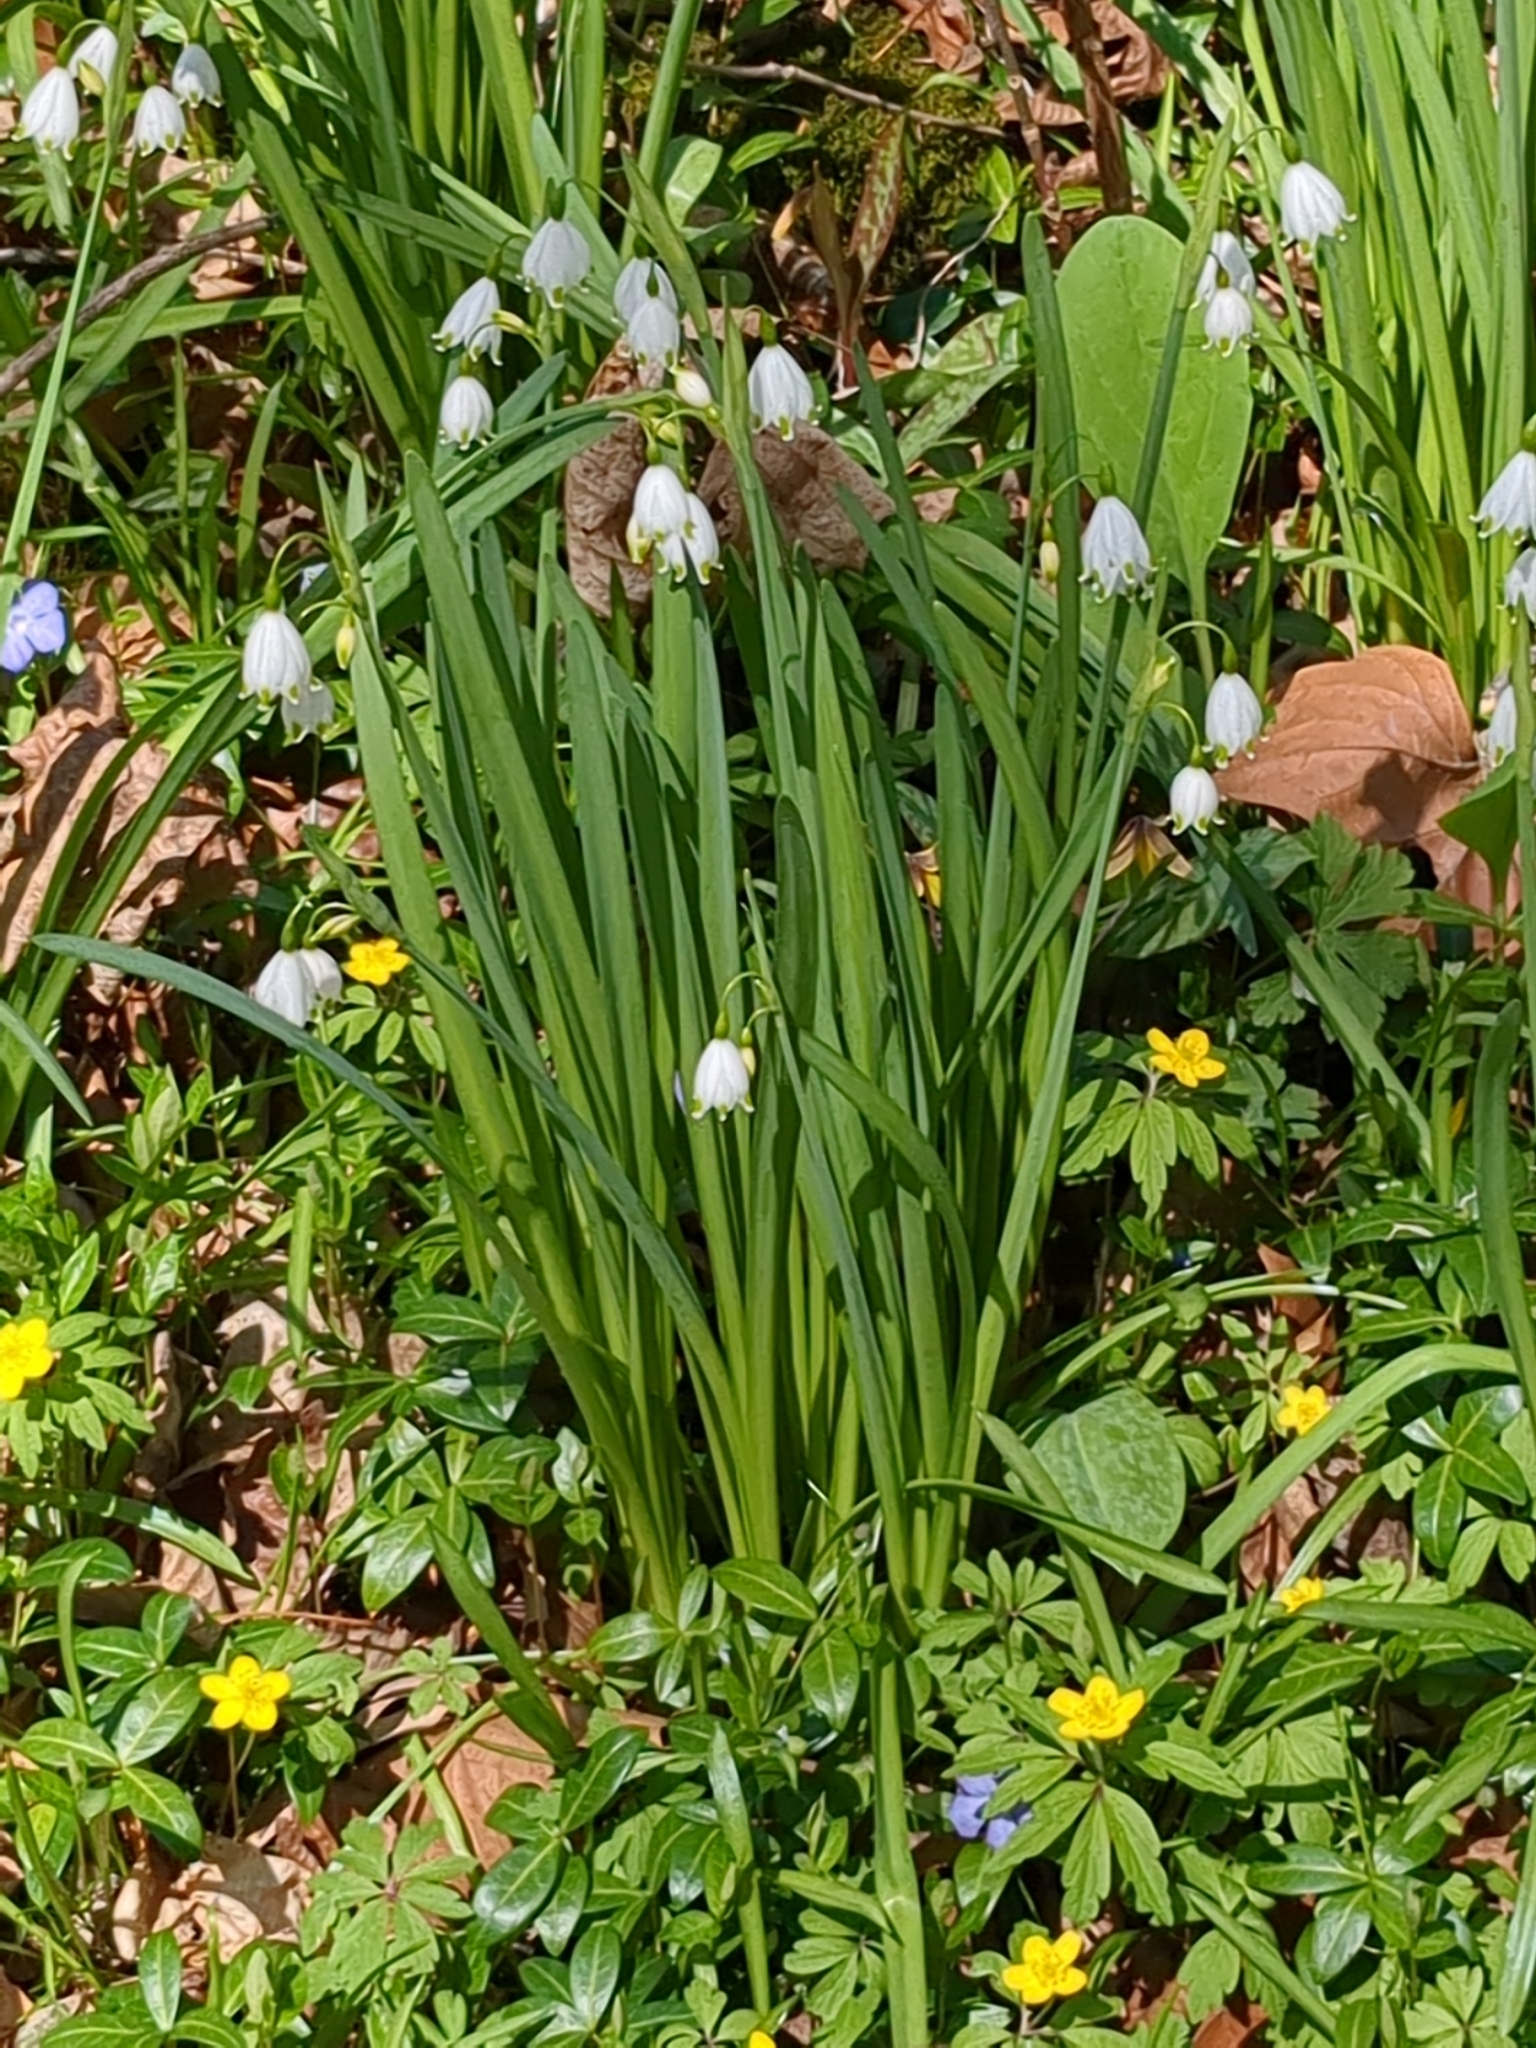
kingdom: Plantae
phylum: Tracheophyta
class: Liliopsida
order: Asparagales
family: Amaryllidaceae
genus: Leucojum
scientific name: Leucojum aestivum
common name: Summer snowflake
